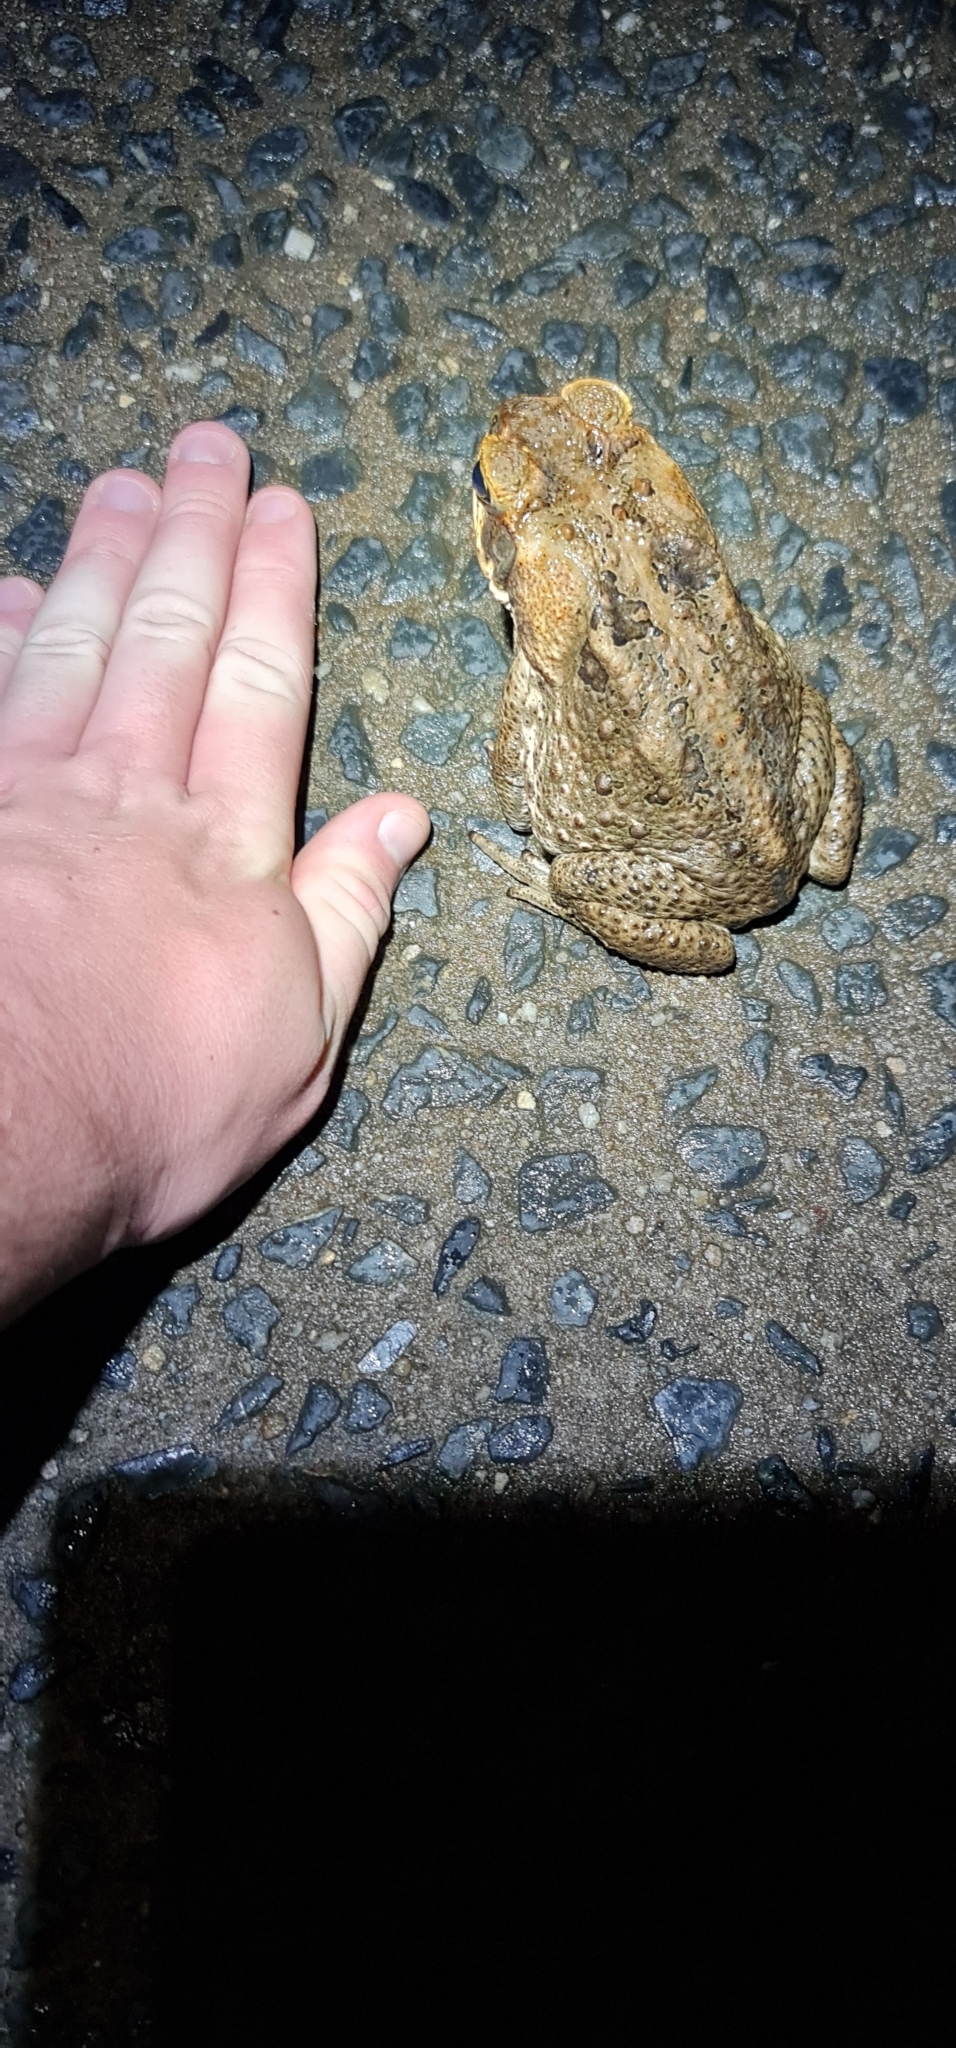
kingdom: Animalia
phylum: Chordata
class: Amphibia
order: Anura
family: Bufonidae
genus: Rhinella
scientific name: Rhinella marina
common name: Cane toad
